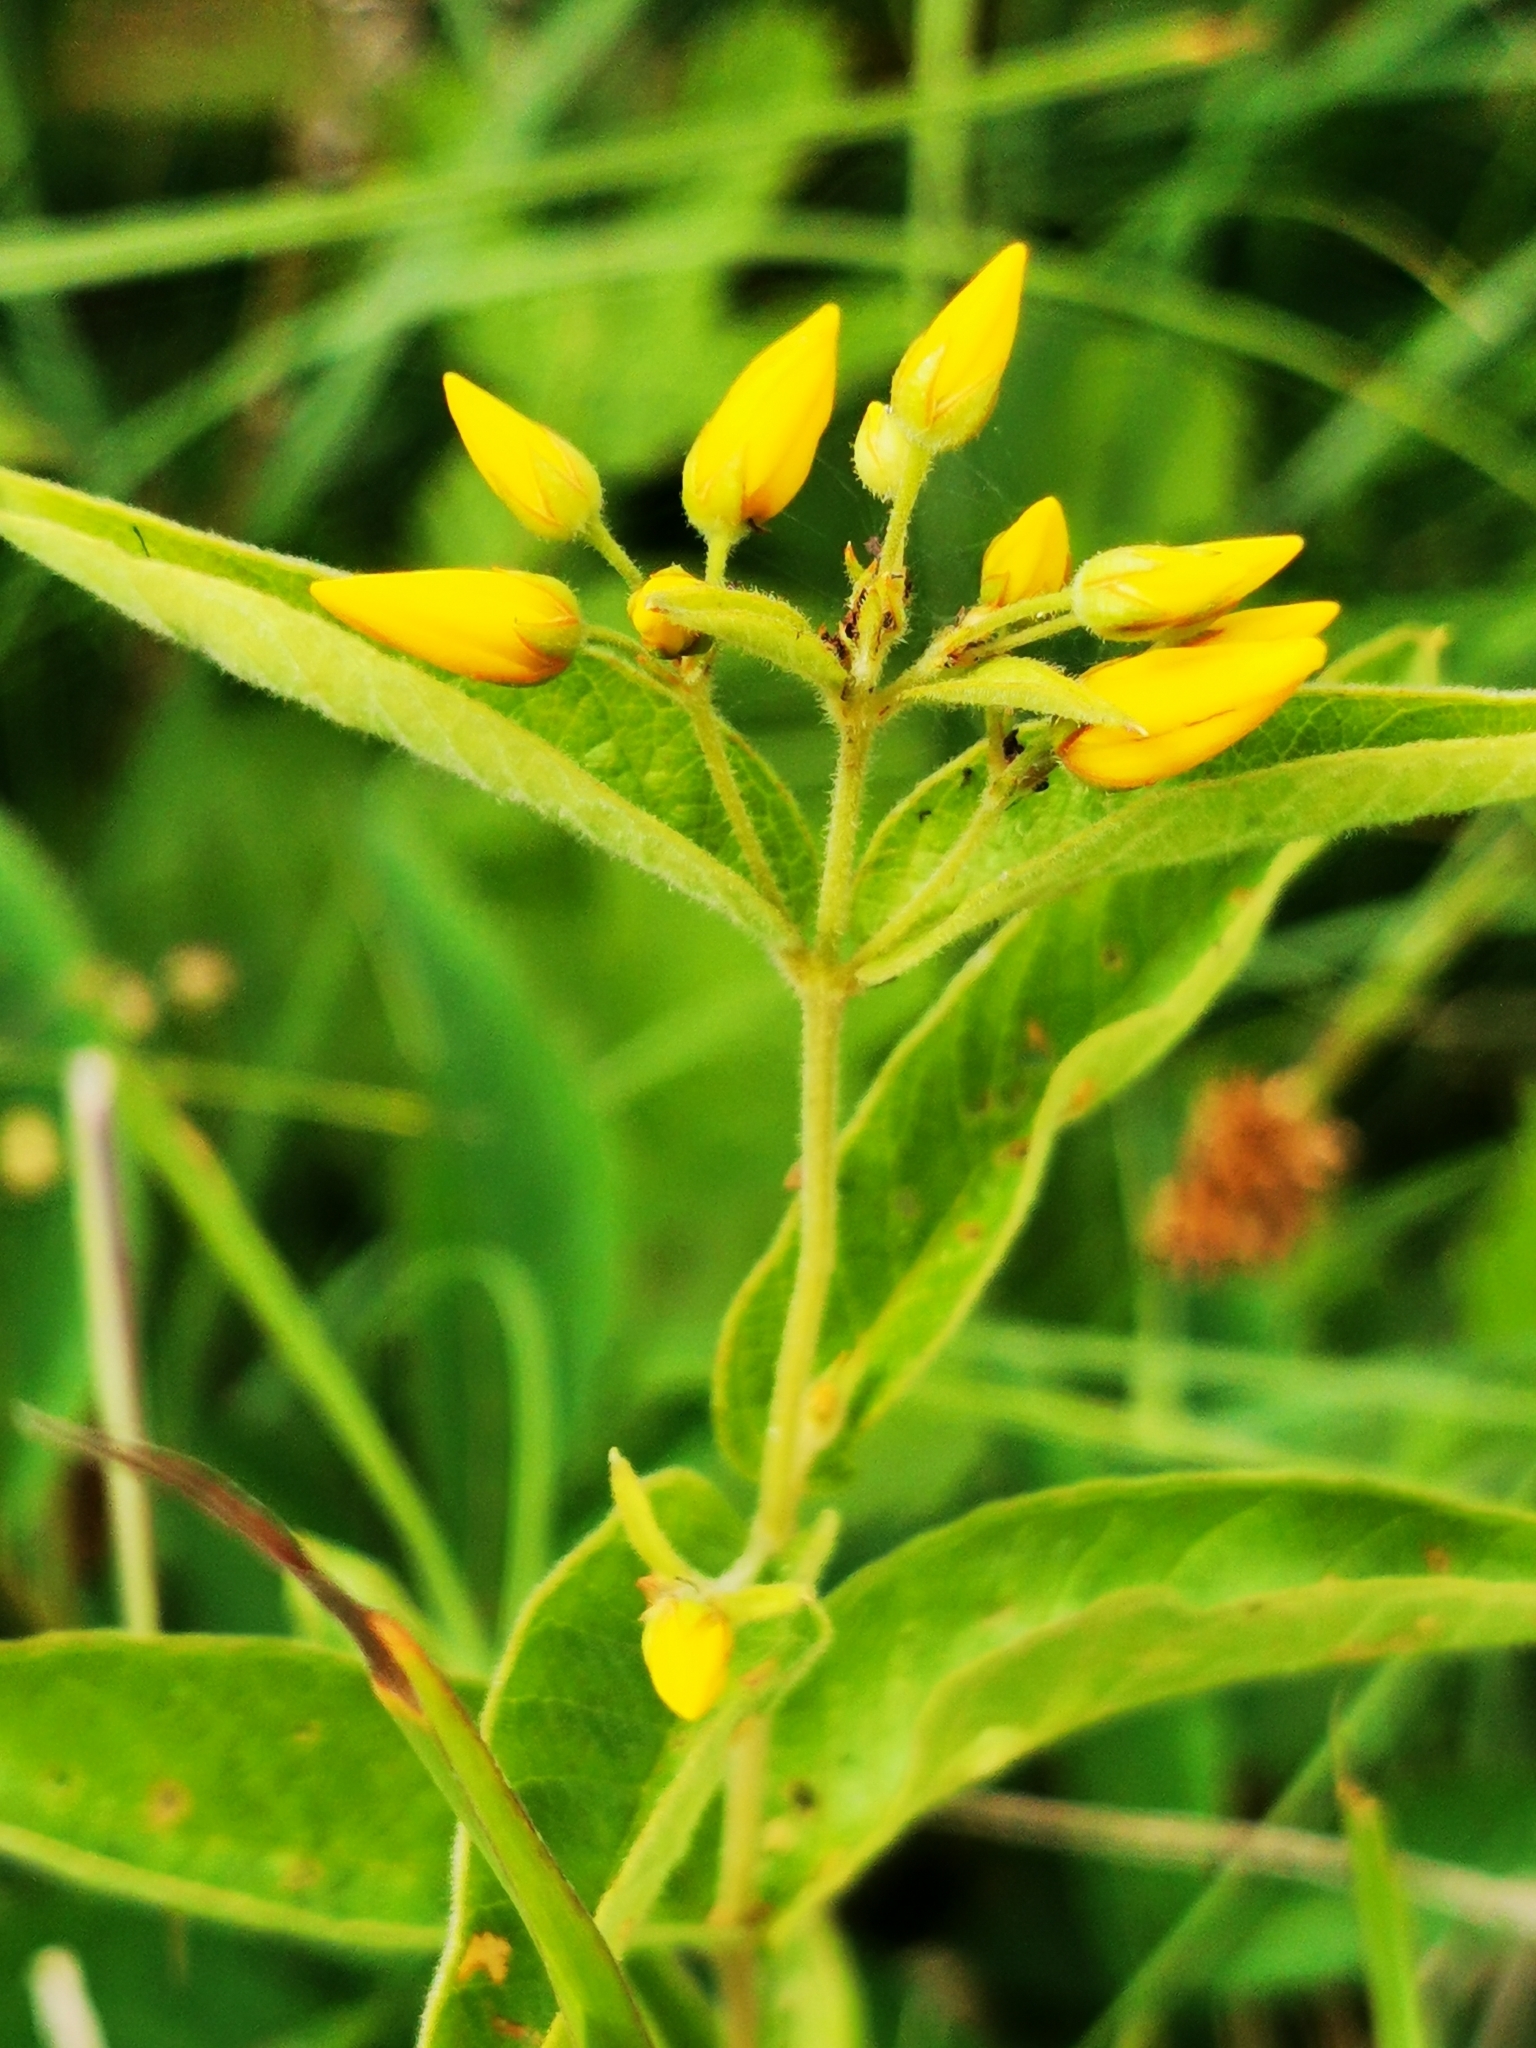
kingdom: Plantae
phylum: Tracheophyta
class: Magnoliopsida
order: Ericales
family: Primulaceae
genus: Lysimachia
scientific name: Lysimachia vulgaris
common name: Yellow loosestrife
